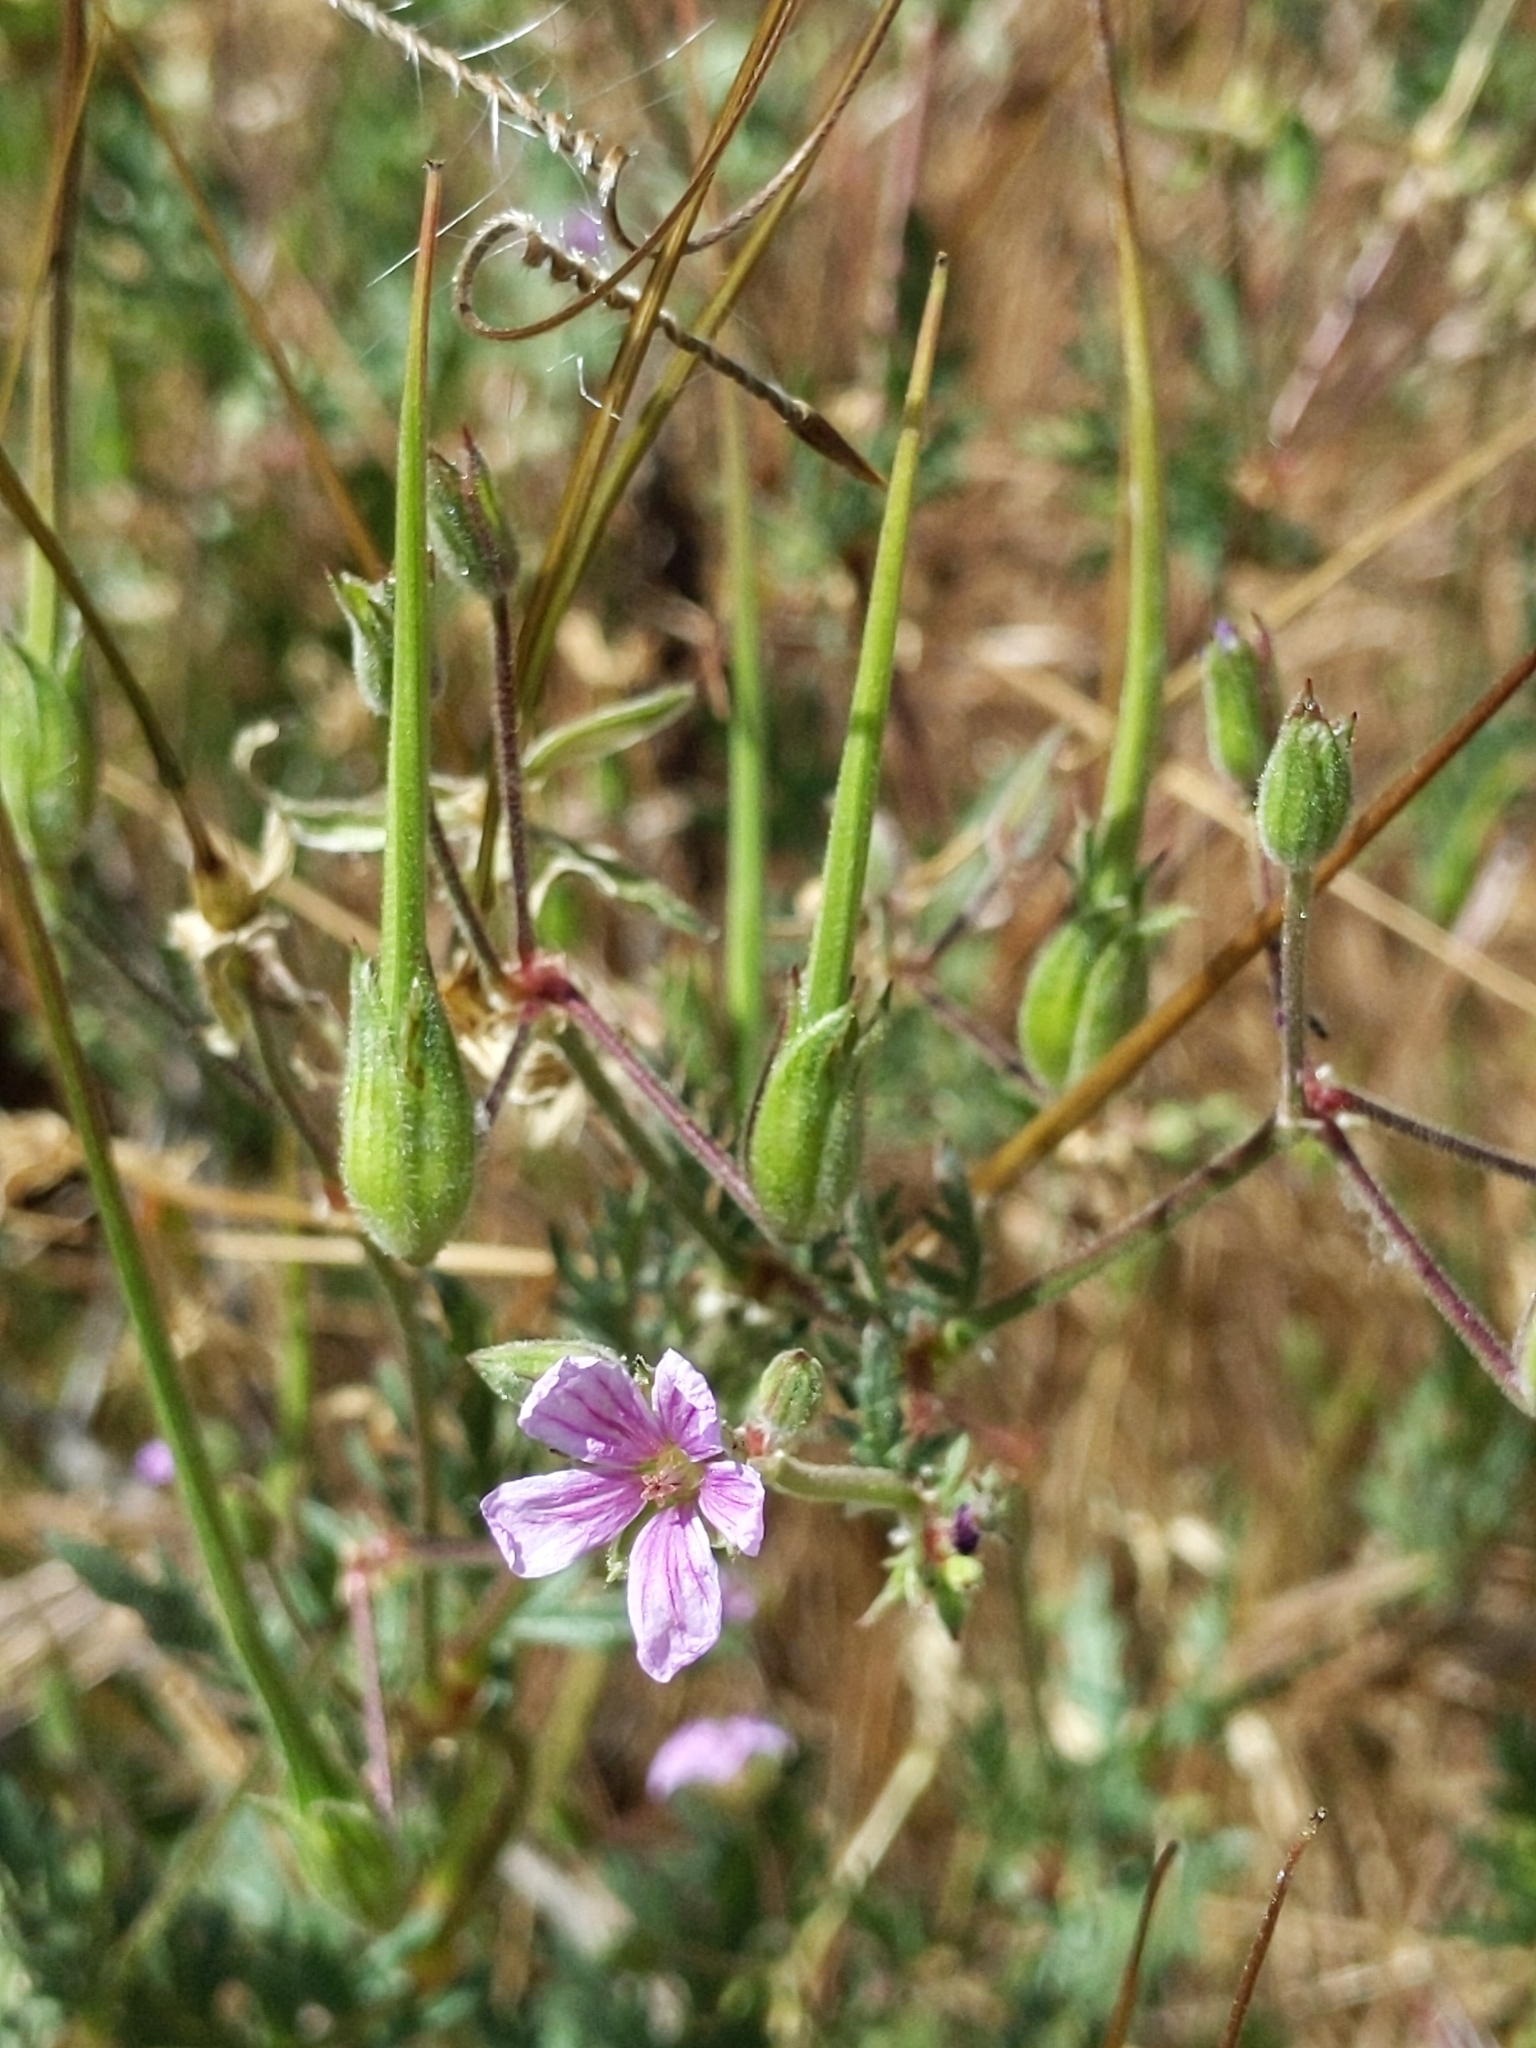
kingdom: Plantae
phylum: Tracheophyta
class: Magnoliopsida
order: Geraniales
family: Geraniaceae
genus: Erodium
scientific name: Erodium botrys
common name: Mediterranean stork's-bill
